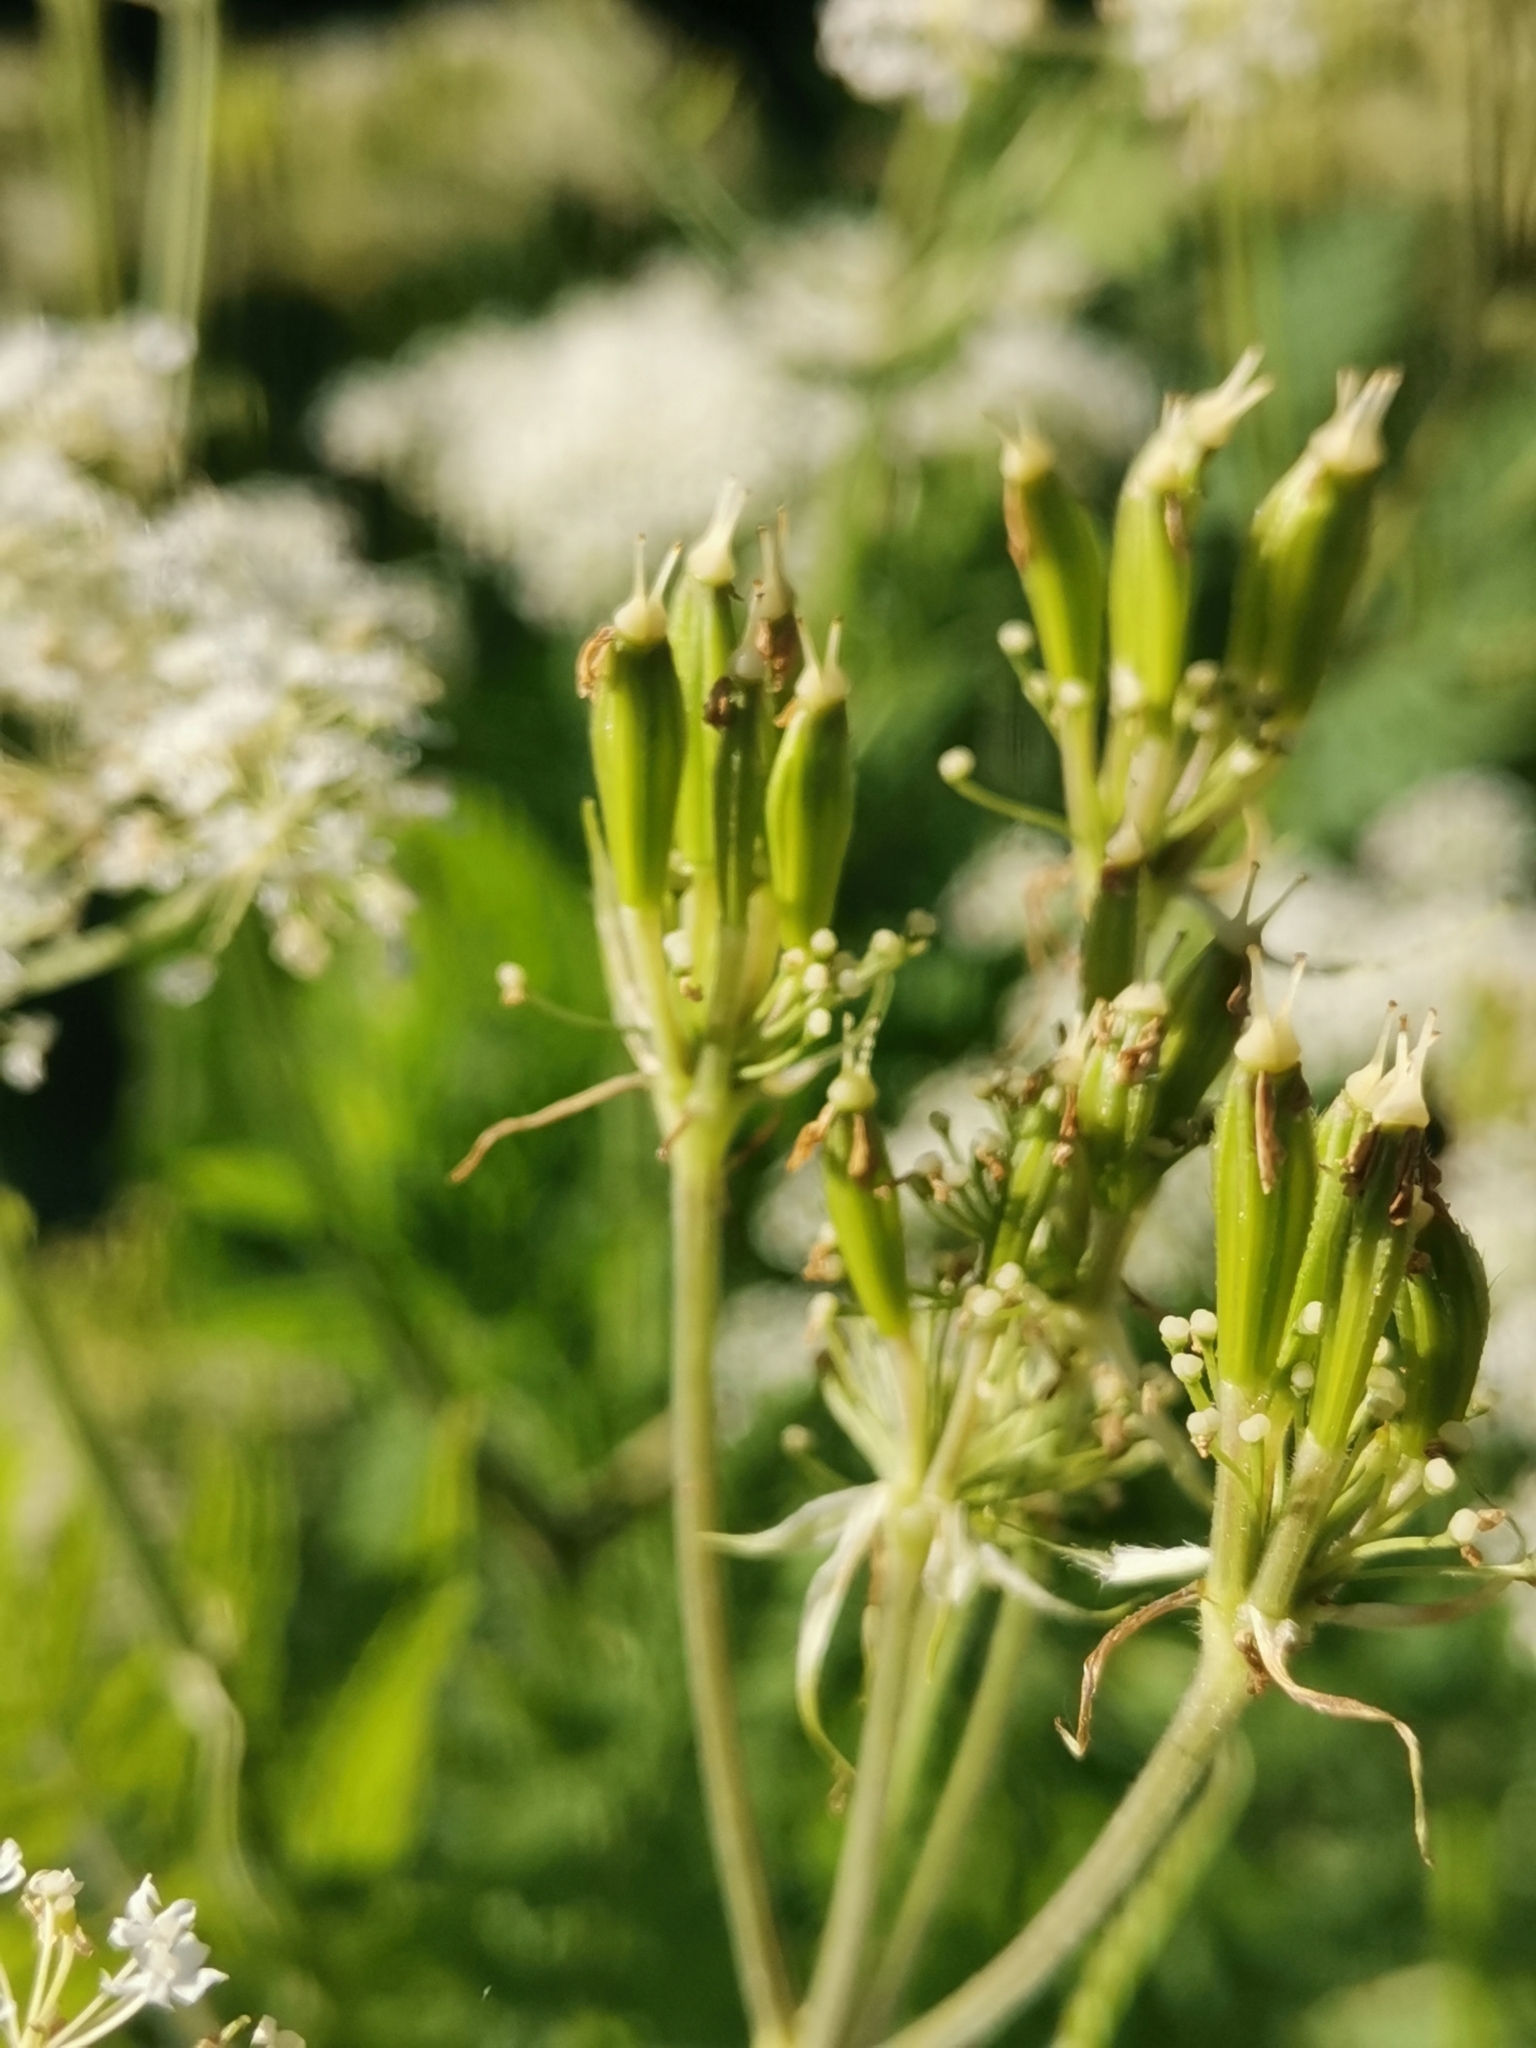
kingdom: Plantae
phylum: Tracheophyta
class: Magnoliopsida
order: Apiales
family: Apiaceae
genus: Myrrhis
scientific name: Myrrhis odorata
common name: Sweet cicely
